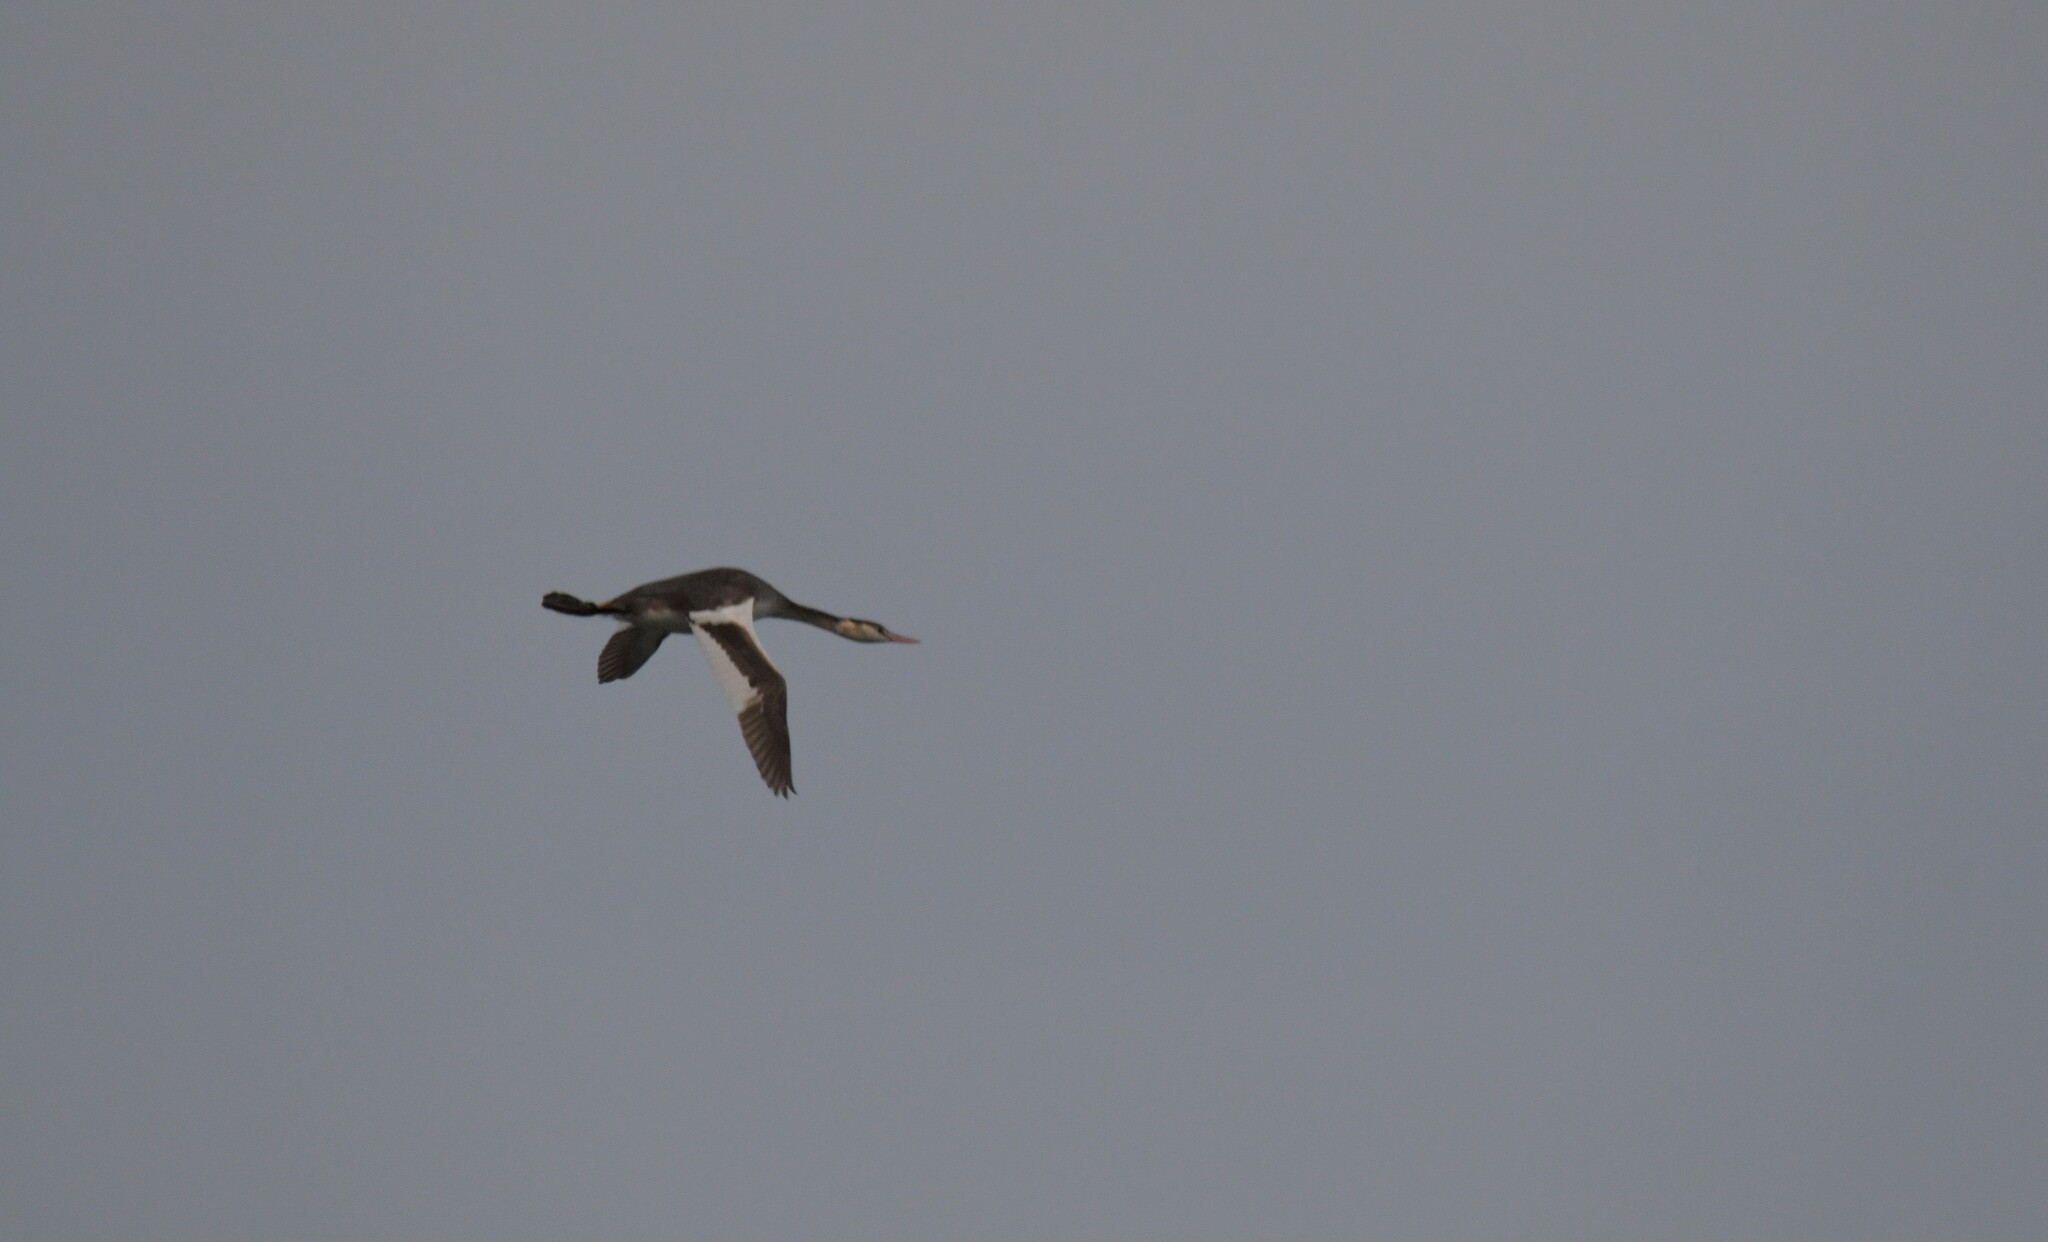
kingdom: Animalia
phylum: Chordata
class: Aves
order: Podicipediformes
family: Podicipedidae
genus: Podiceps
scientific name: Podiceps cristatus
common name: Great crested grebe
